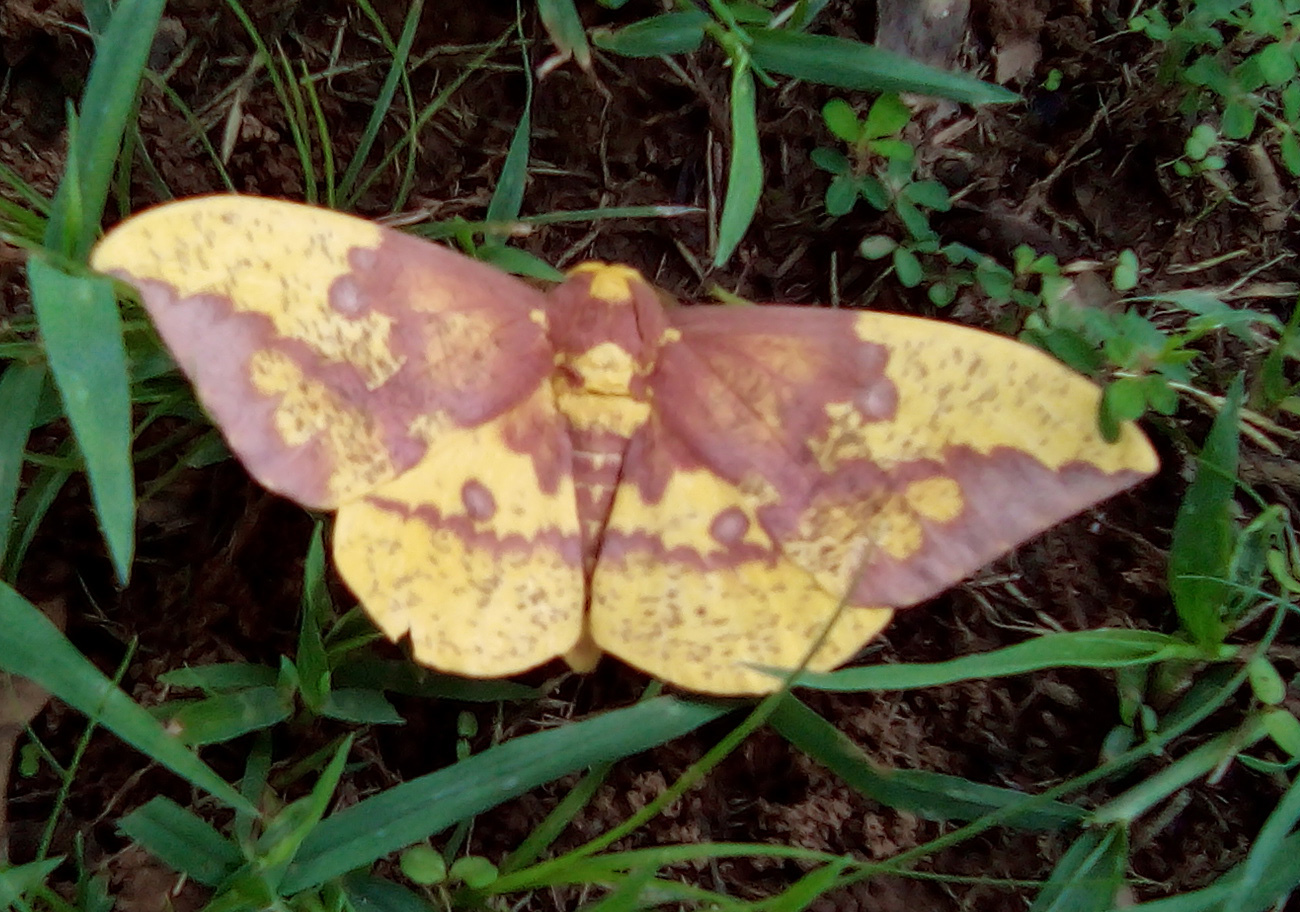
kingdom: Animalia
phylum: Arthropoda
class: Insecta
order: Lepidoptera
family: Saturniidae
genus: Eacles
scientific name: Eacles imperialis
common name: Imperial moth
